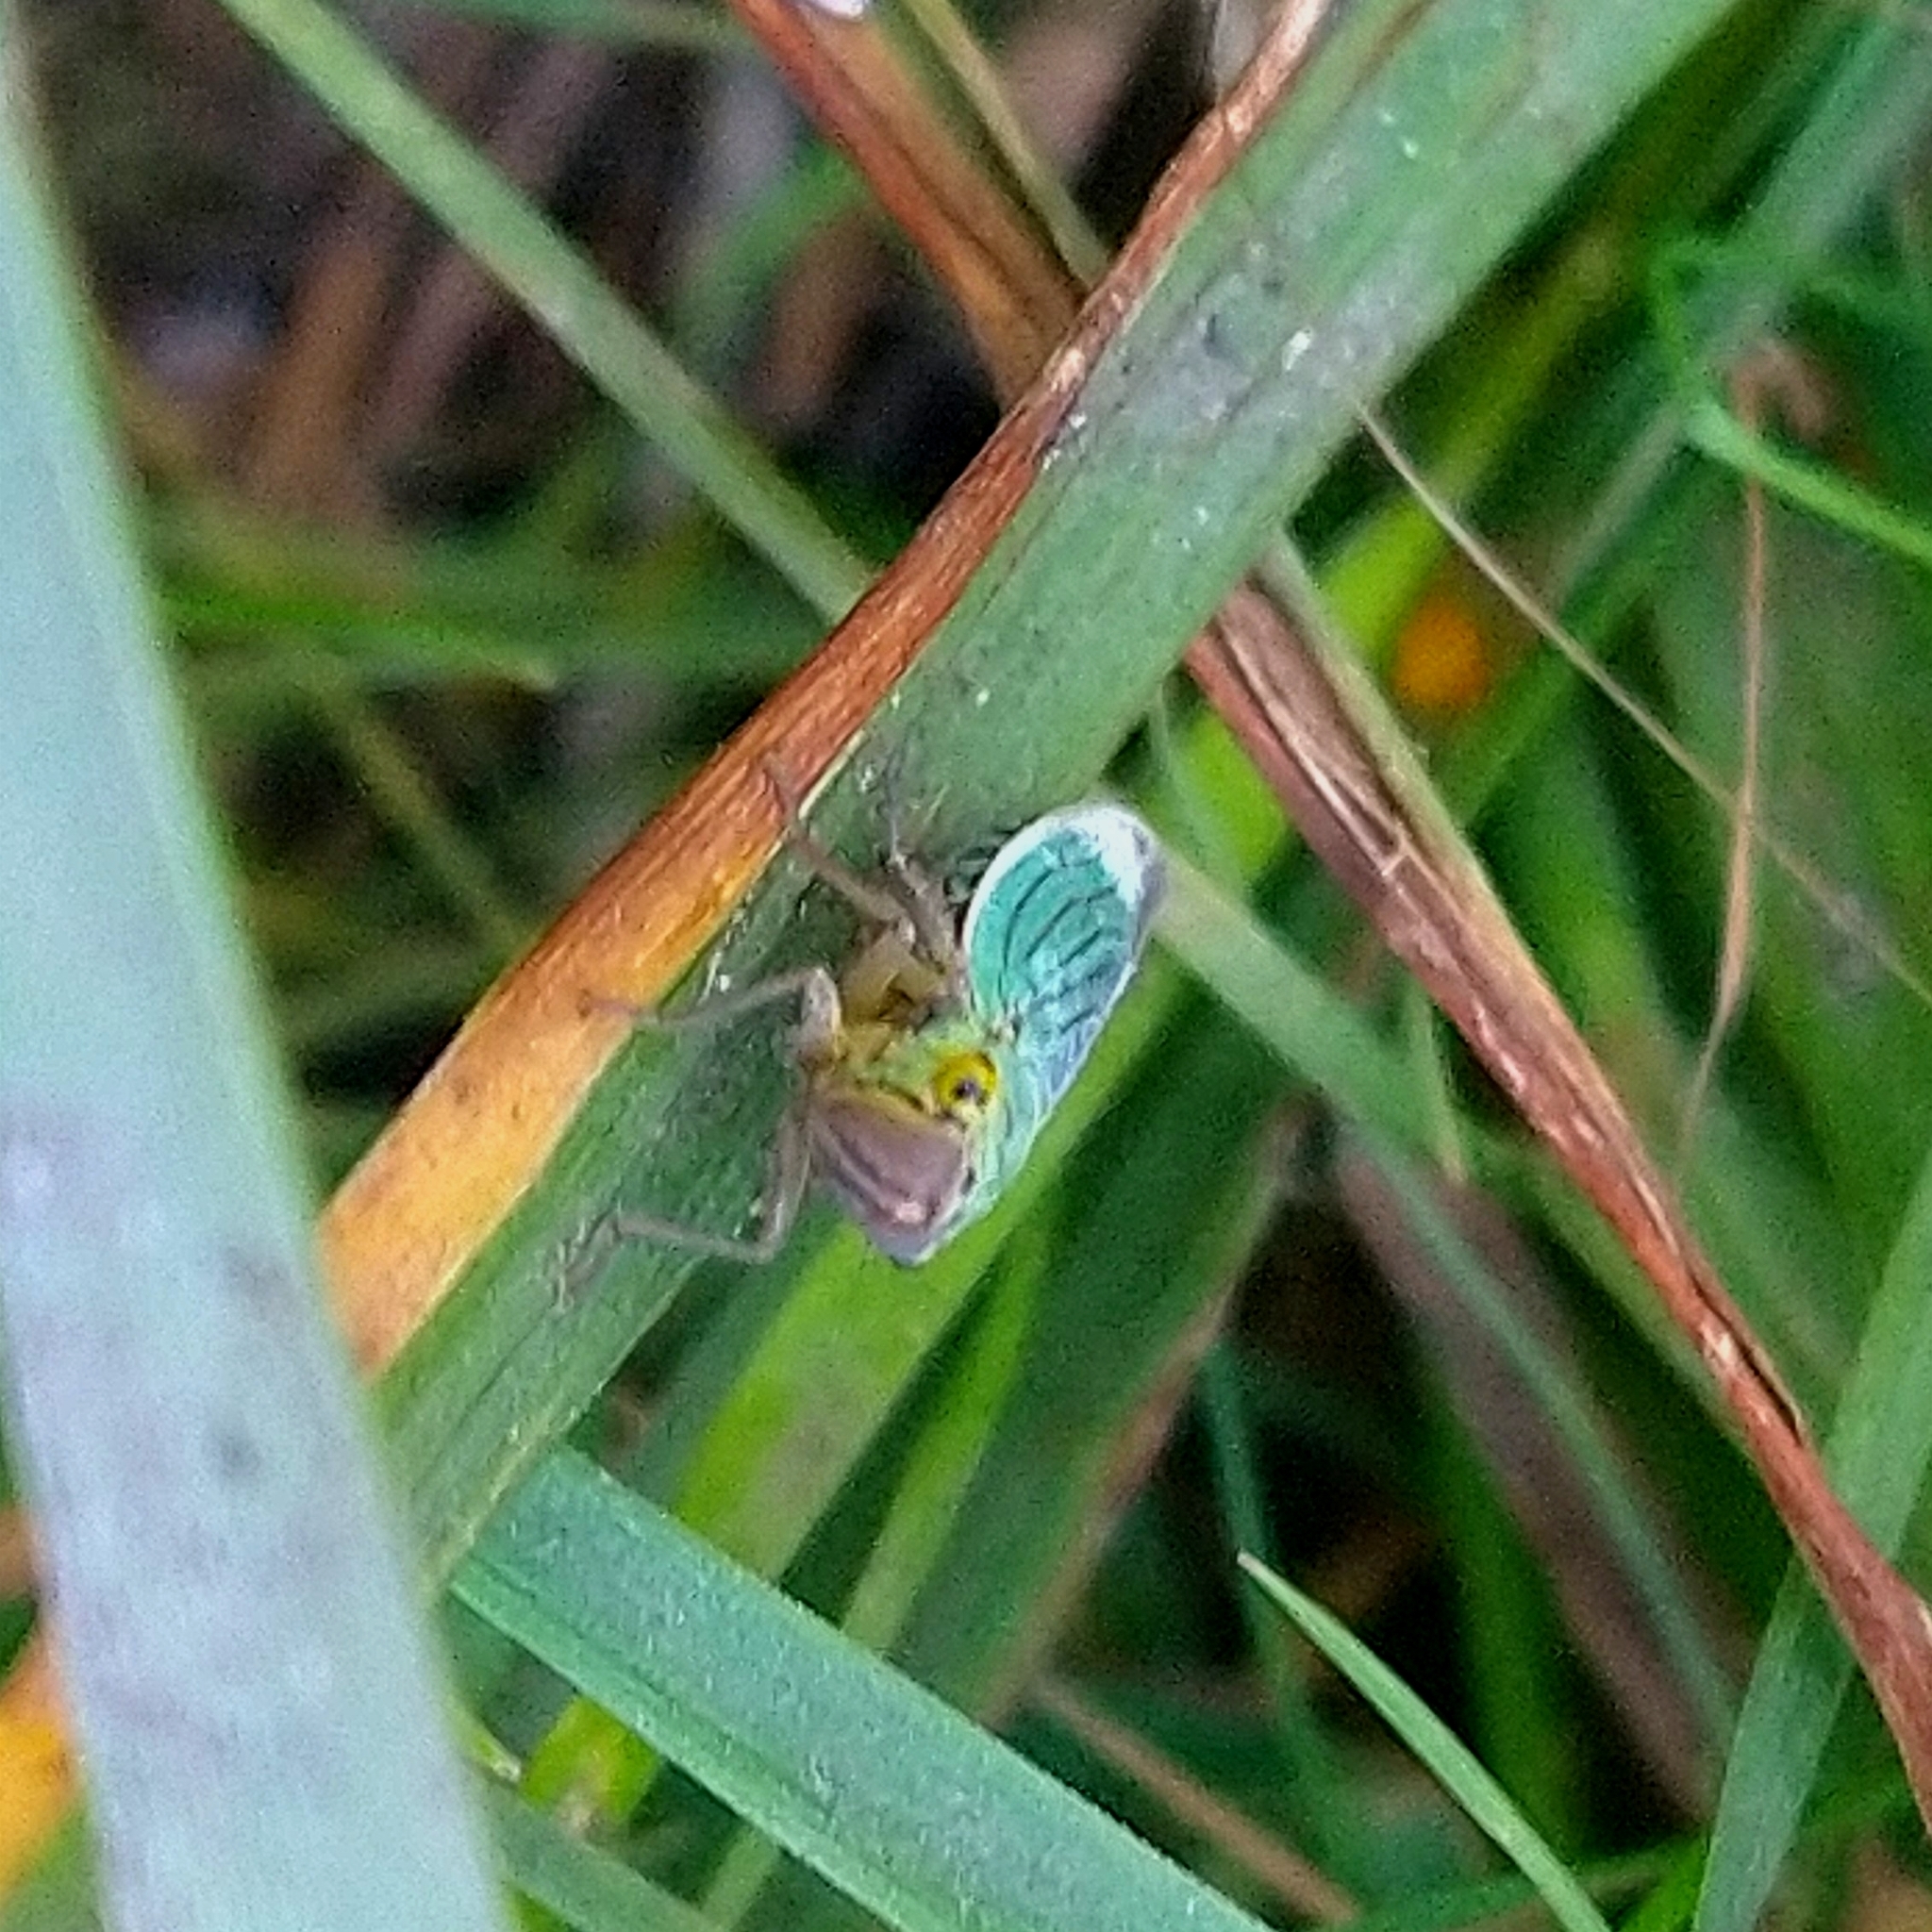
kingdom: Animalia
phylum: Arthropoda
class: Insecta
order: Hemiptera
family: Cicadellidae
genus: Cicadella
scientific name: Cicadella viridis
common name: Leafhopper
